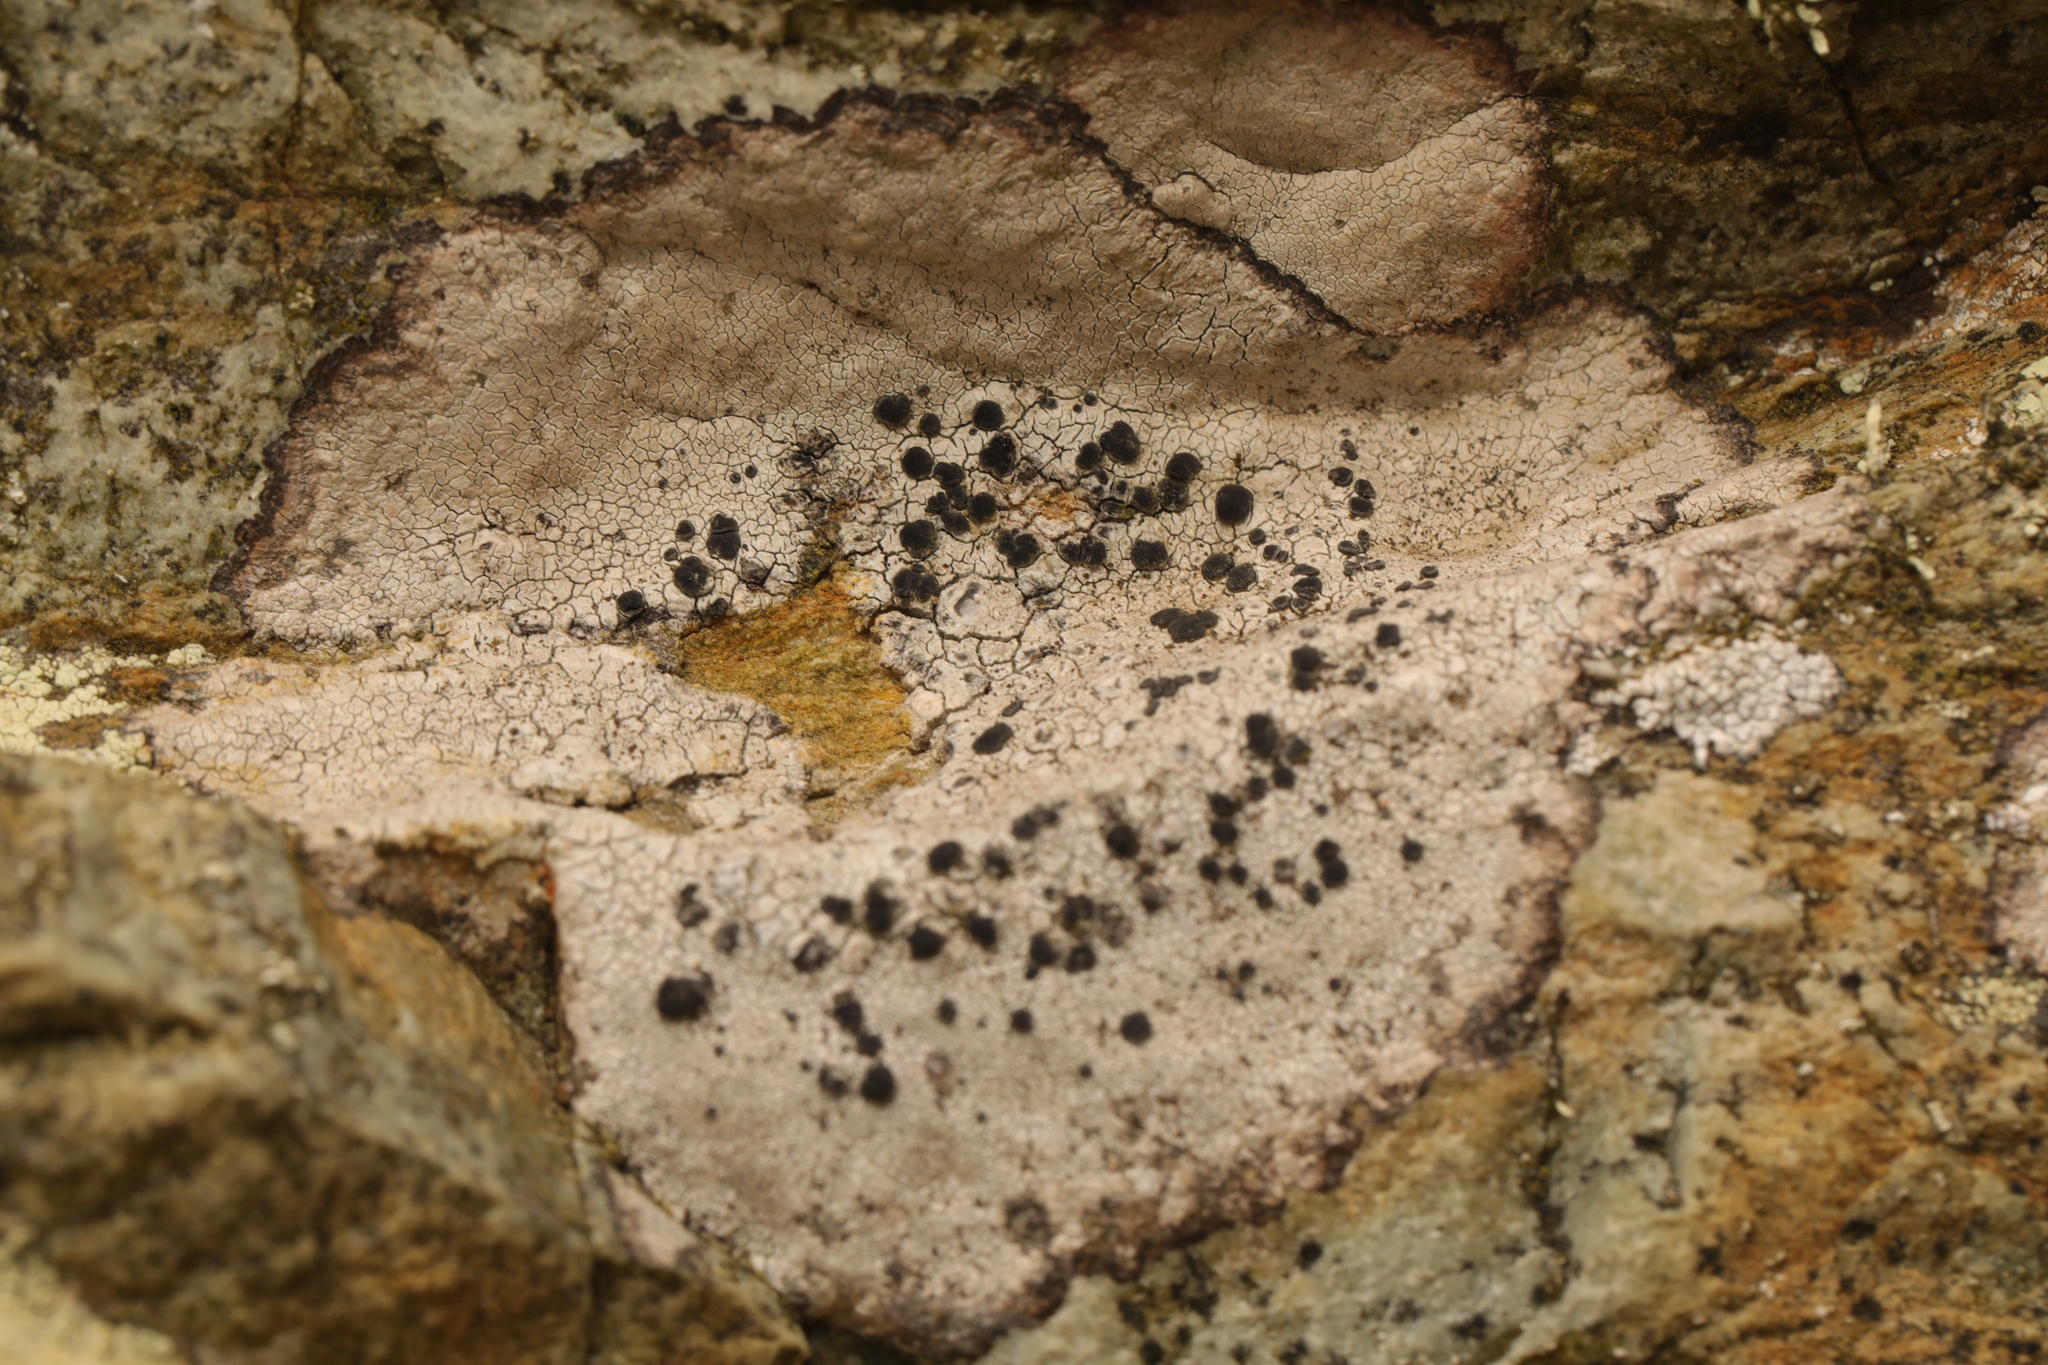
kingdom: Fungi
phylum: Ascomycota
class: Lecanoromycetes
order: Caliciales
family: Caliciaceae
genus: Buellia
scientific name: Buellia subdisciformis
